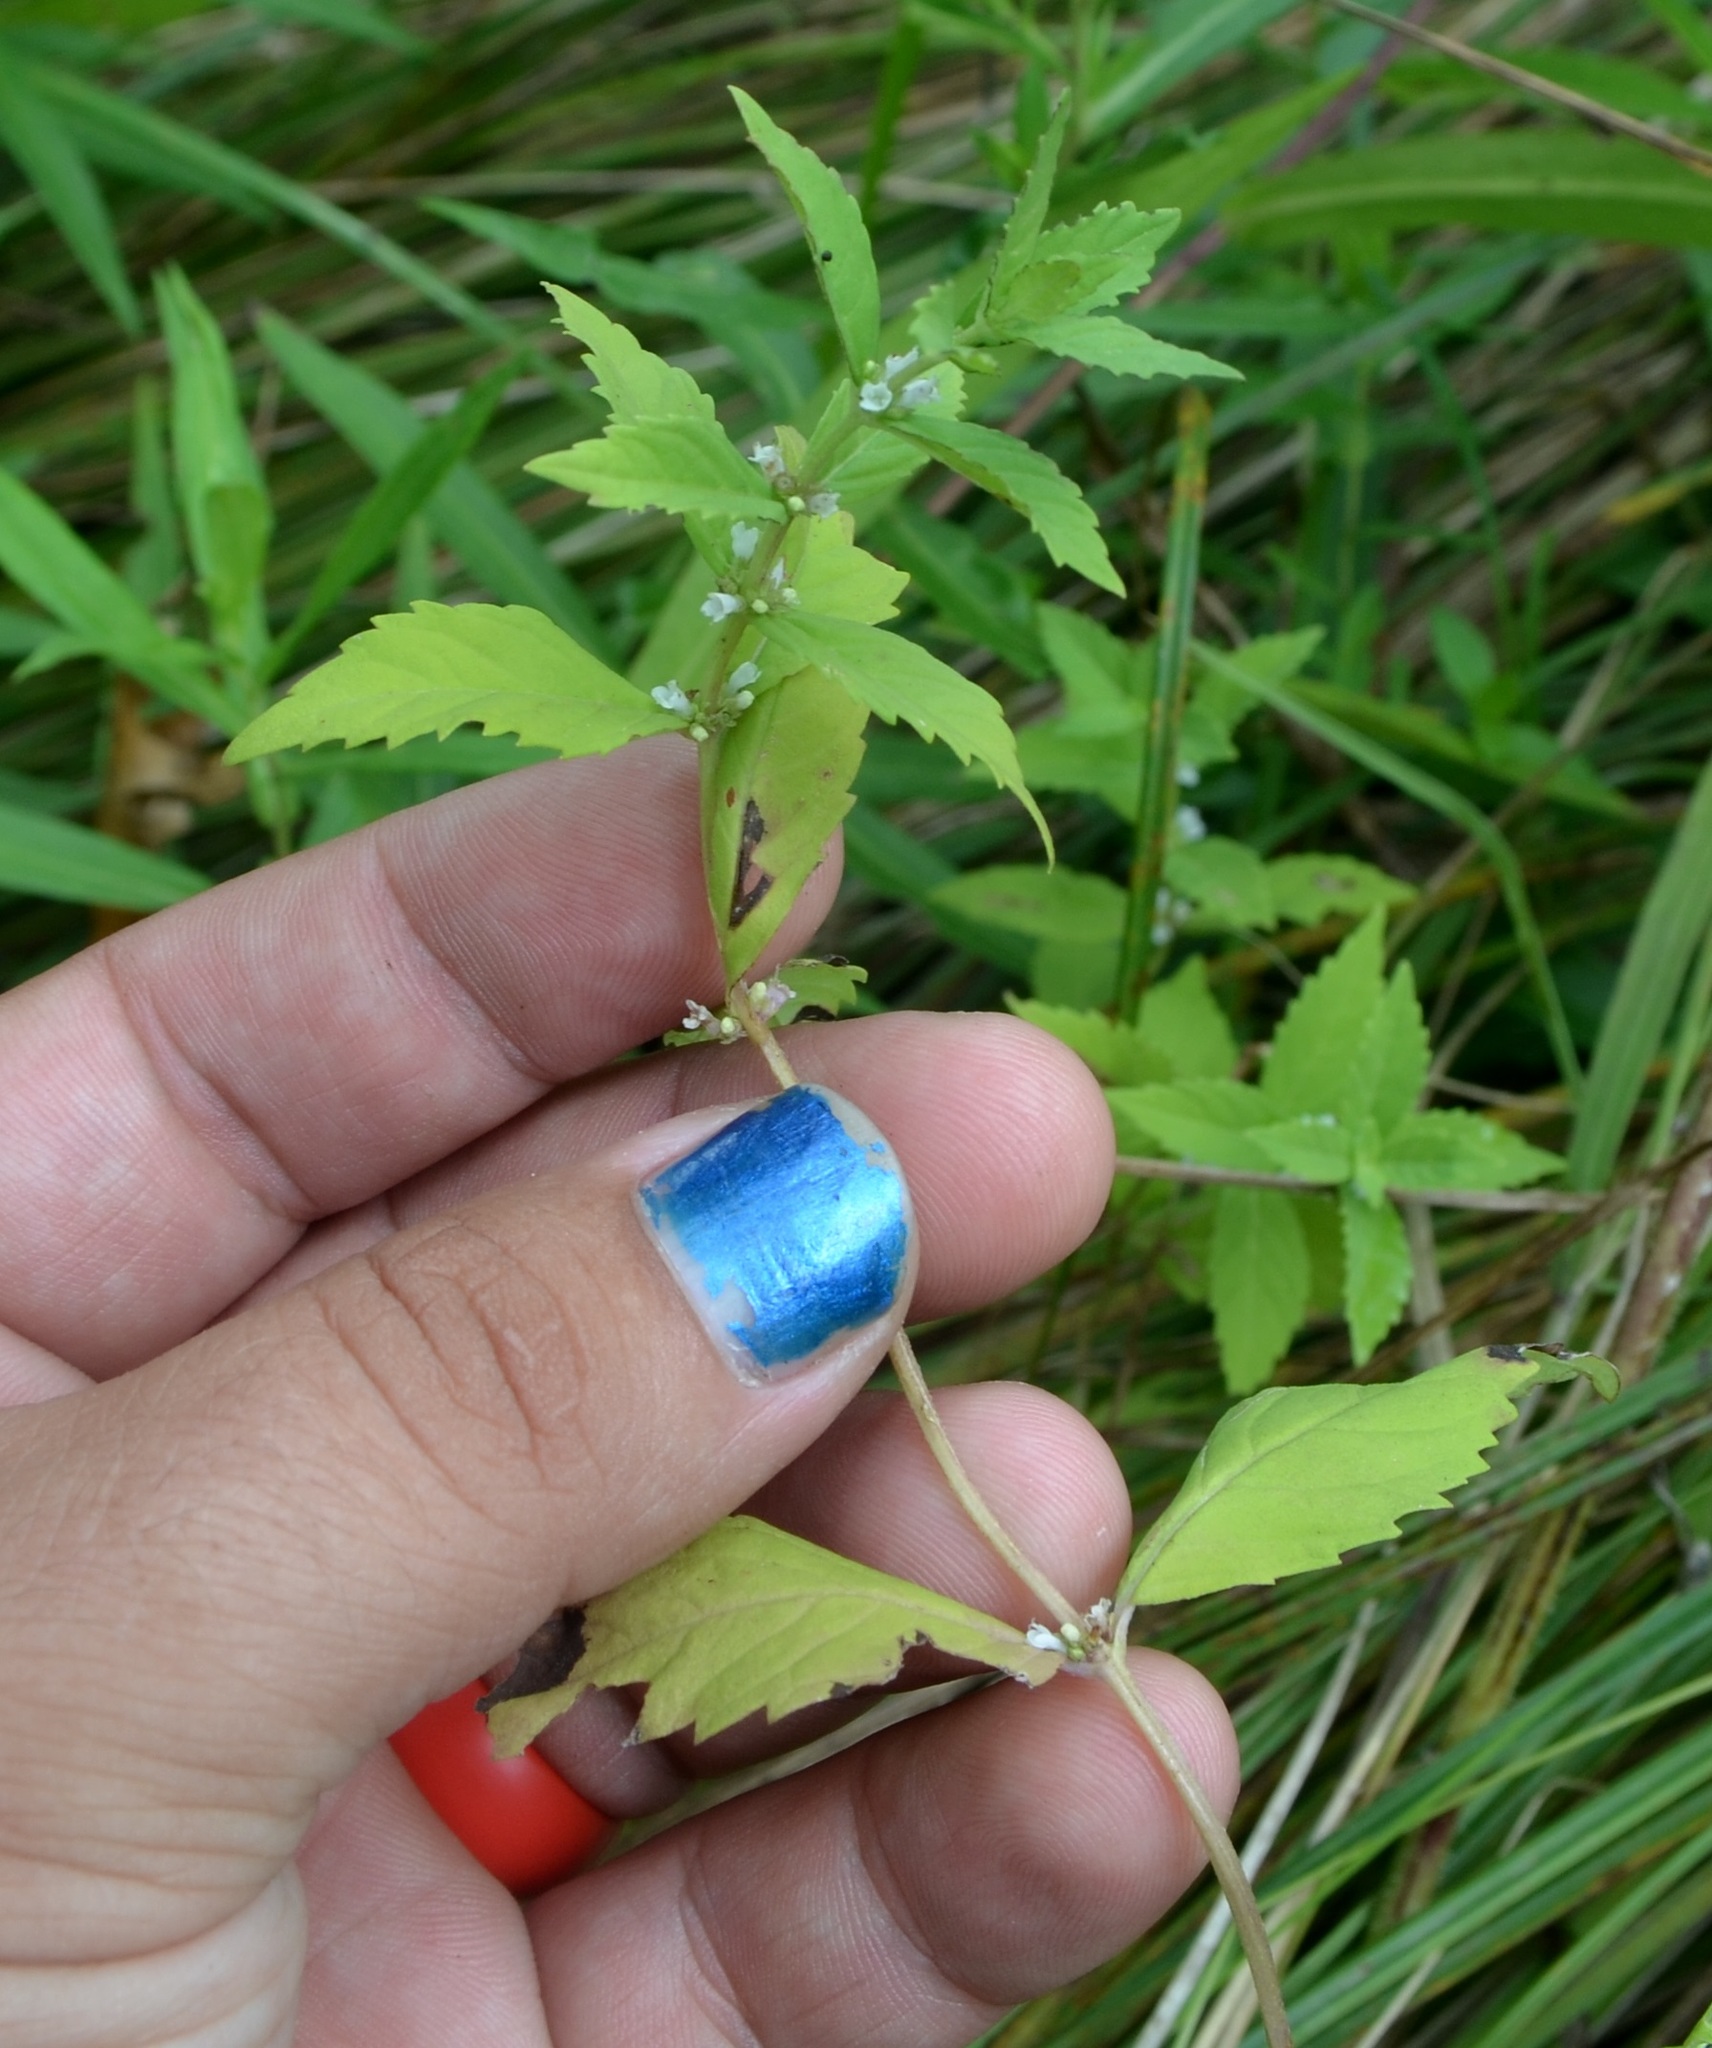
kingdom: Plantae
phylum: Tracheophyta
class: Magnoliopsida
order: Lamiales
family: Lamiaceae
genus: Lycopus
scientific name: Lycopus uniflorus
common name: Northern bugleweed
